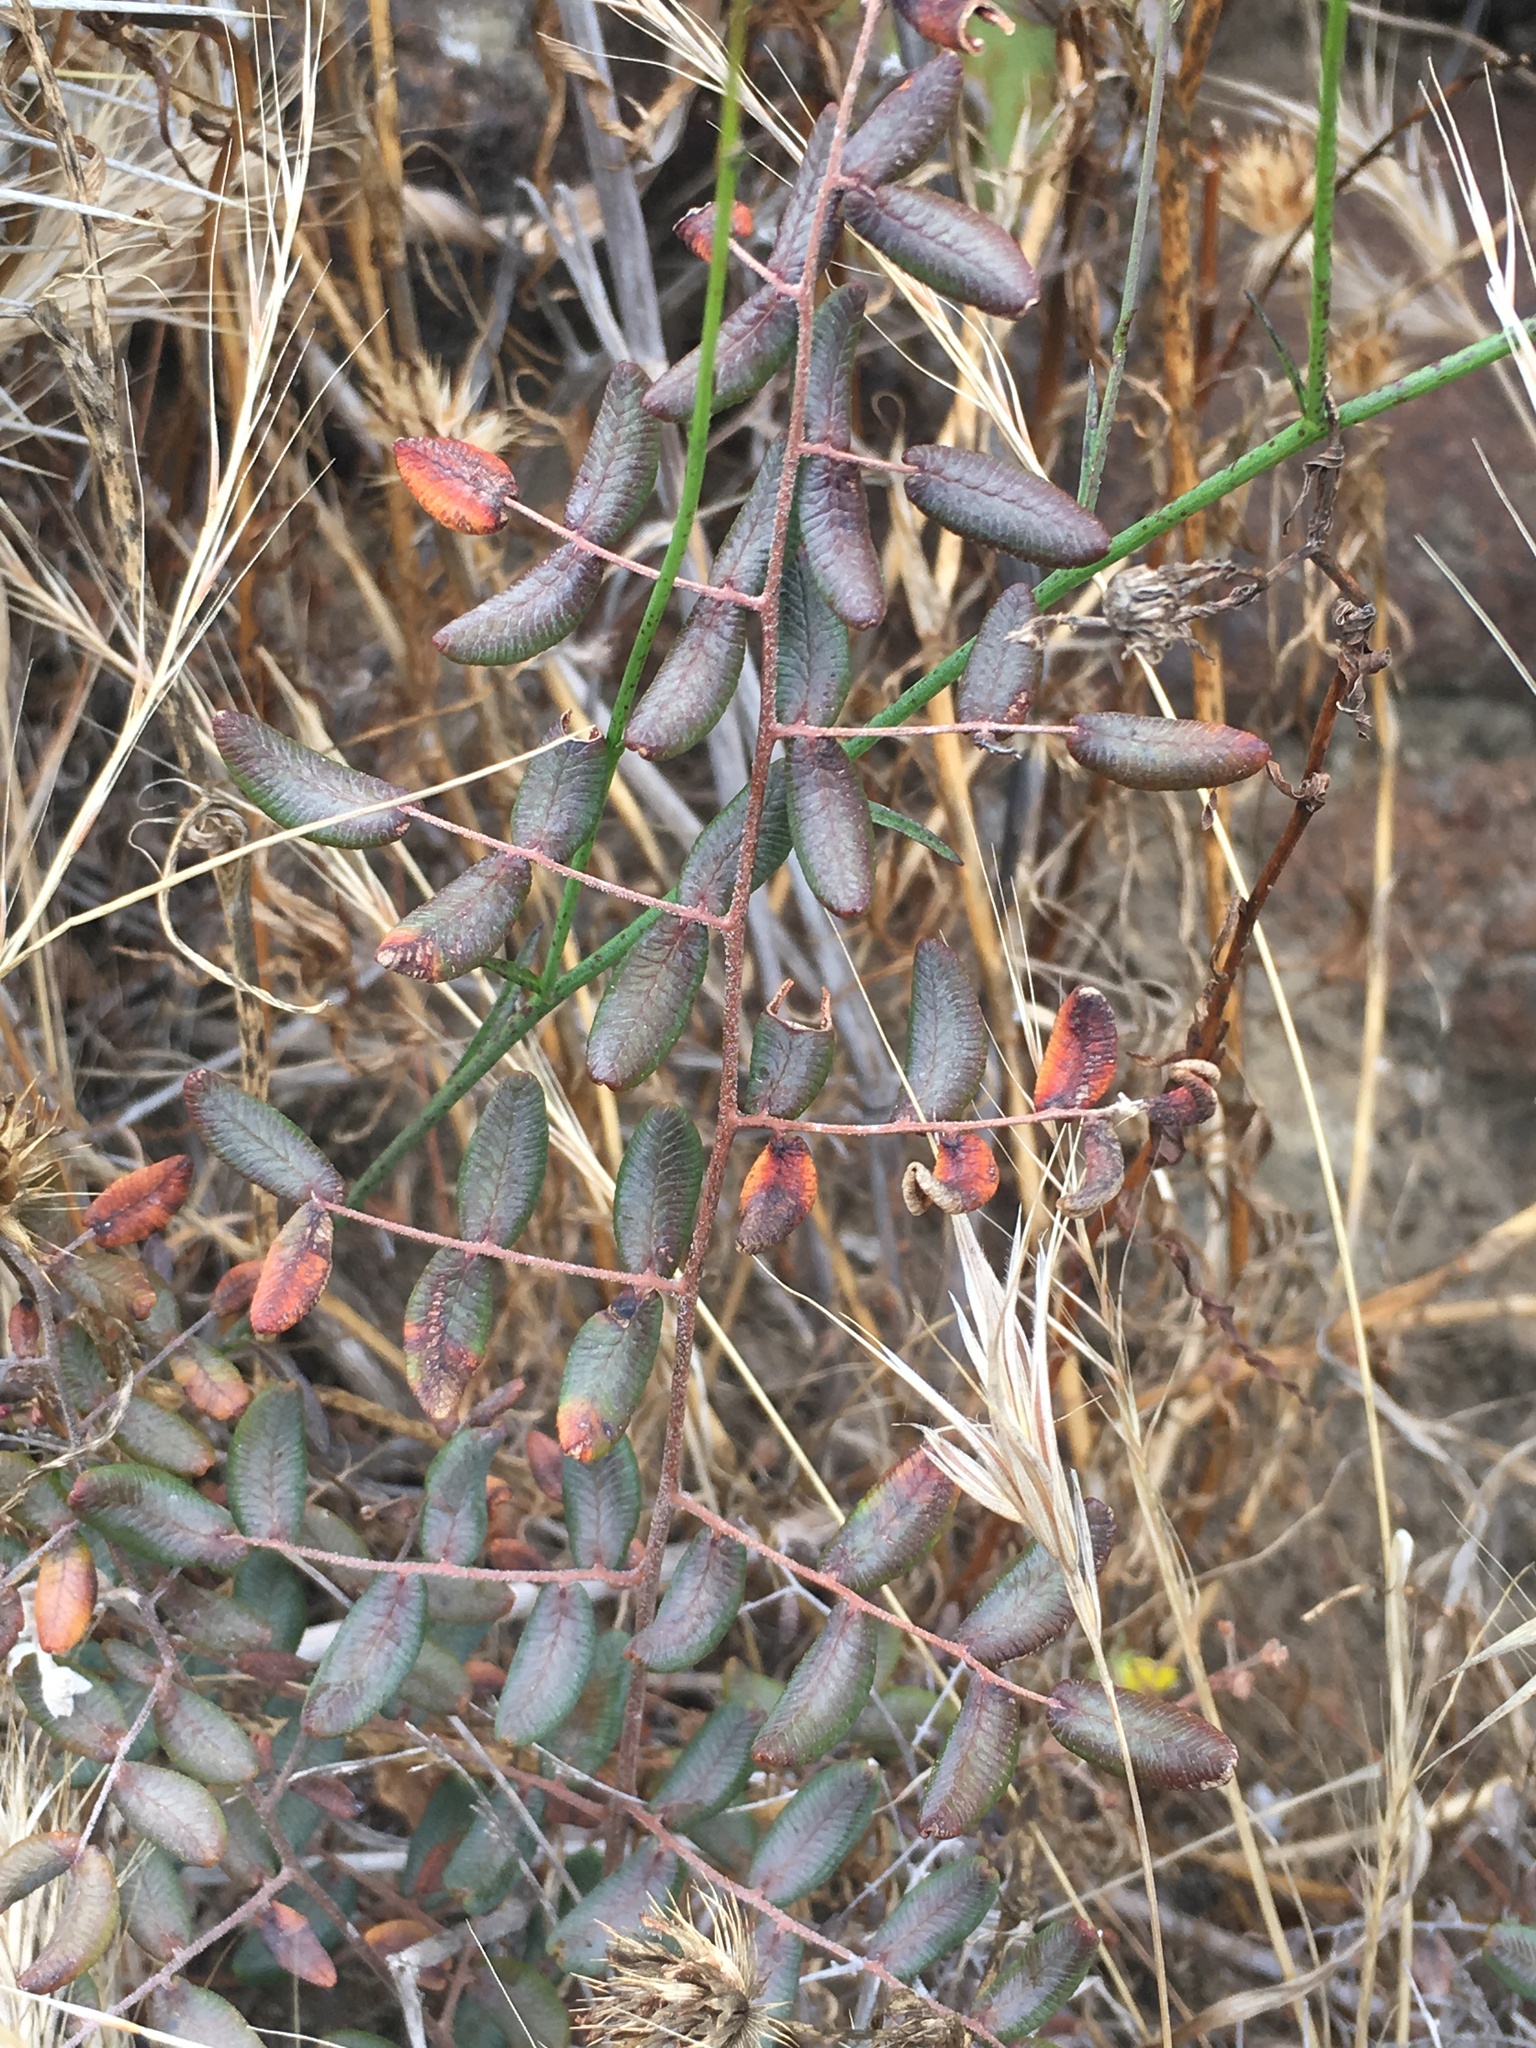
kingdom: Plantae
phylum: Tracheophyta
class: Polypodiopsida
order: Polypodiales
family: Pteridaceae
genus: Pellaea
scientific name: Pellaea andromedifolia
